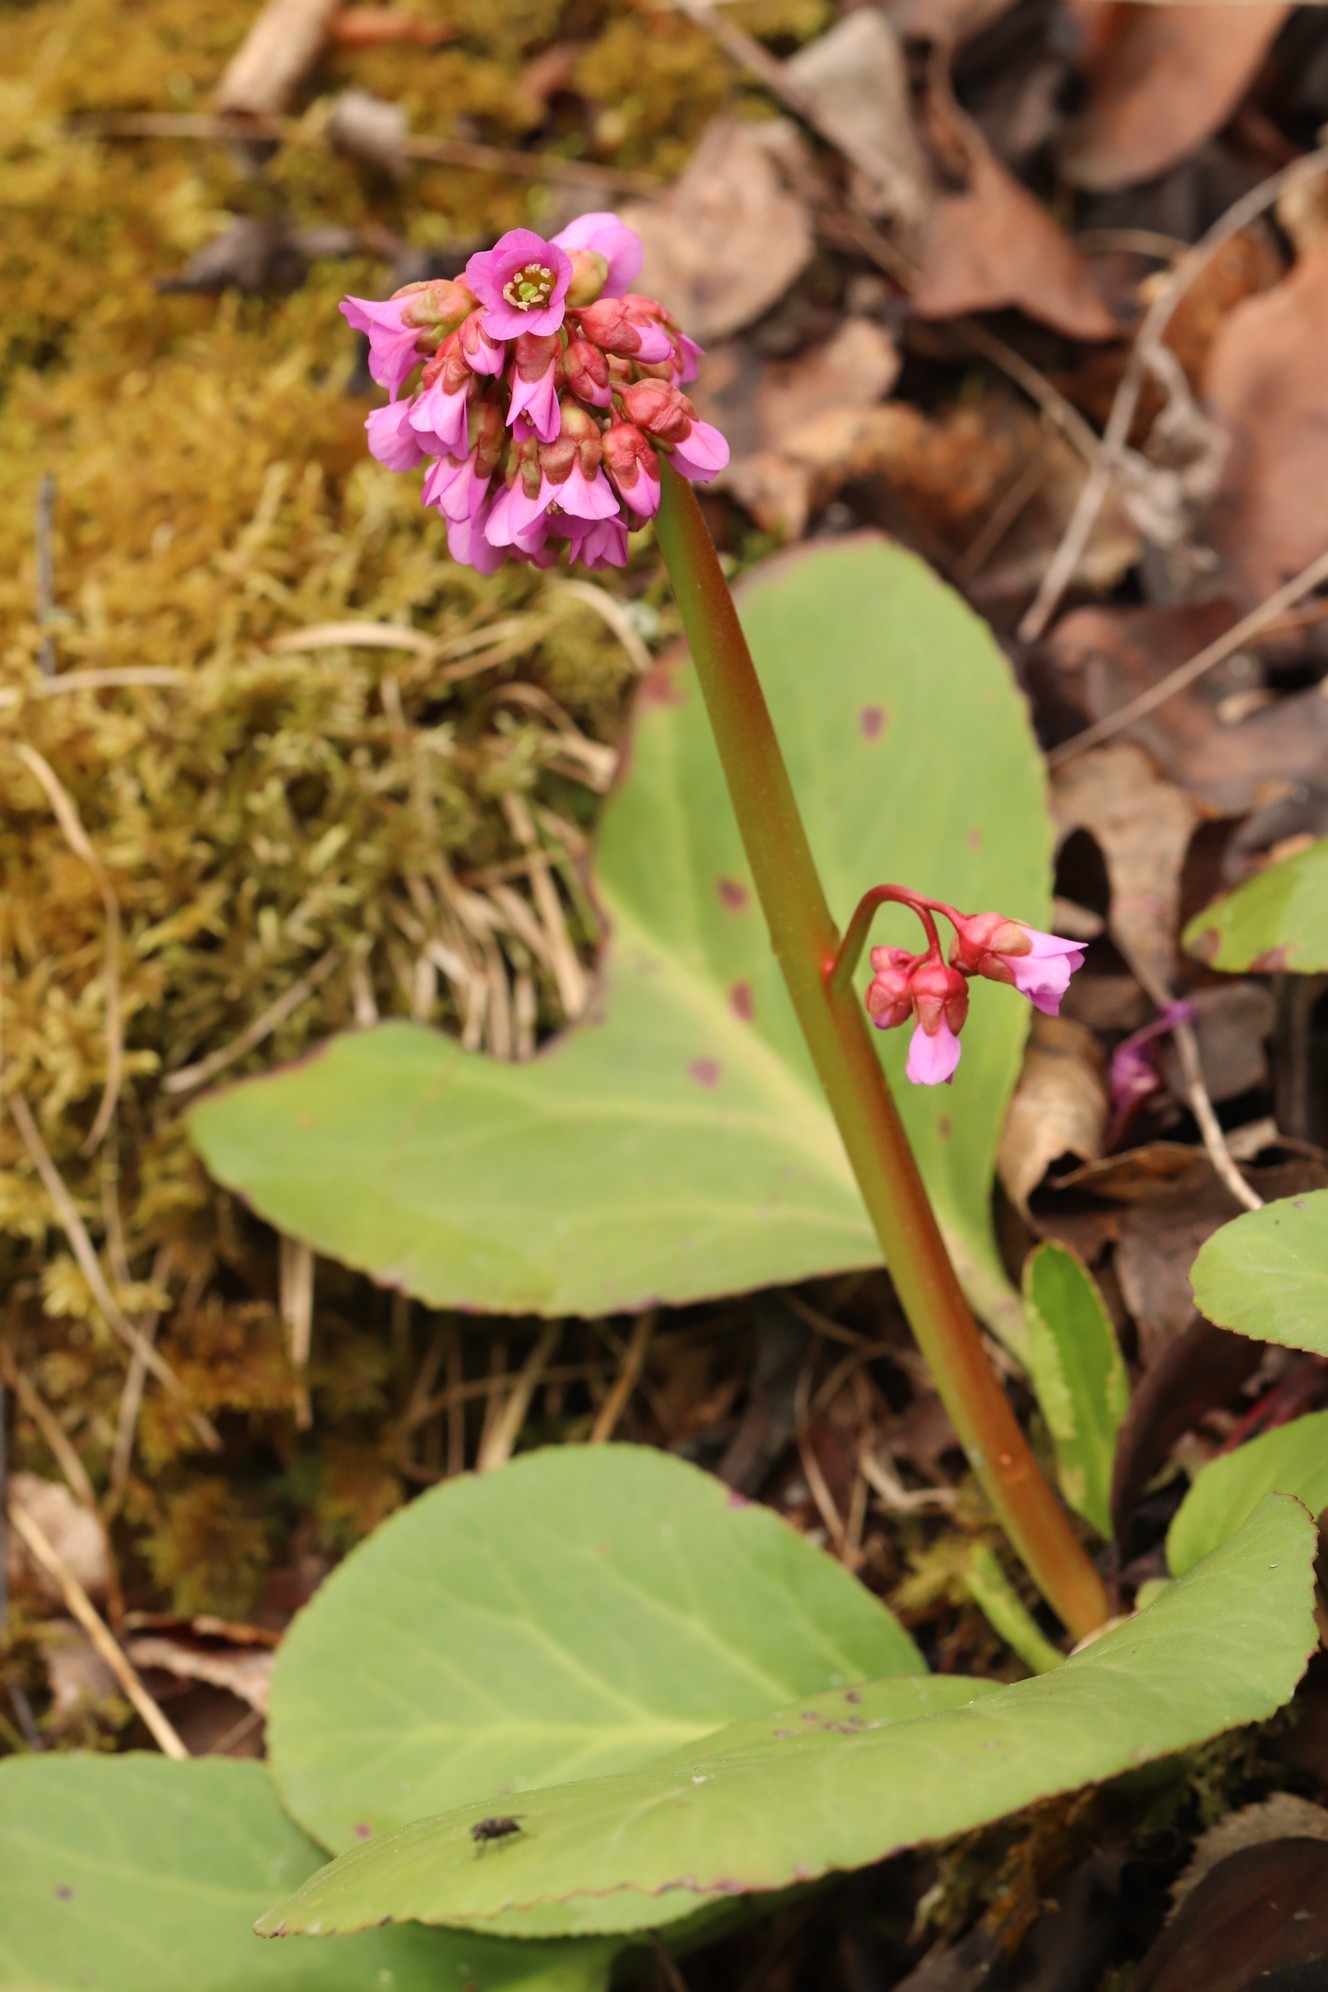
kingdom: Plantae
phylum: Tracheophyta
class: Magnoliopsida
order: Saxifragales
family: Saxifragaceae
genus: Bergenia
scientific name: Bergenia crassifolia
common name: Elephant-ears
